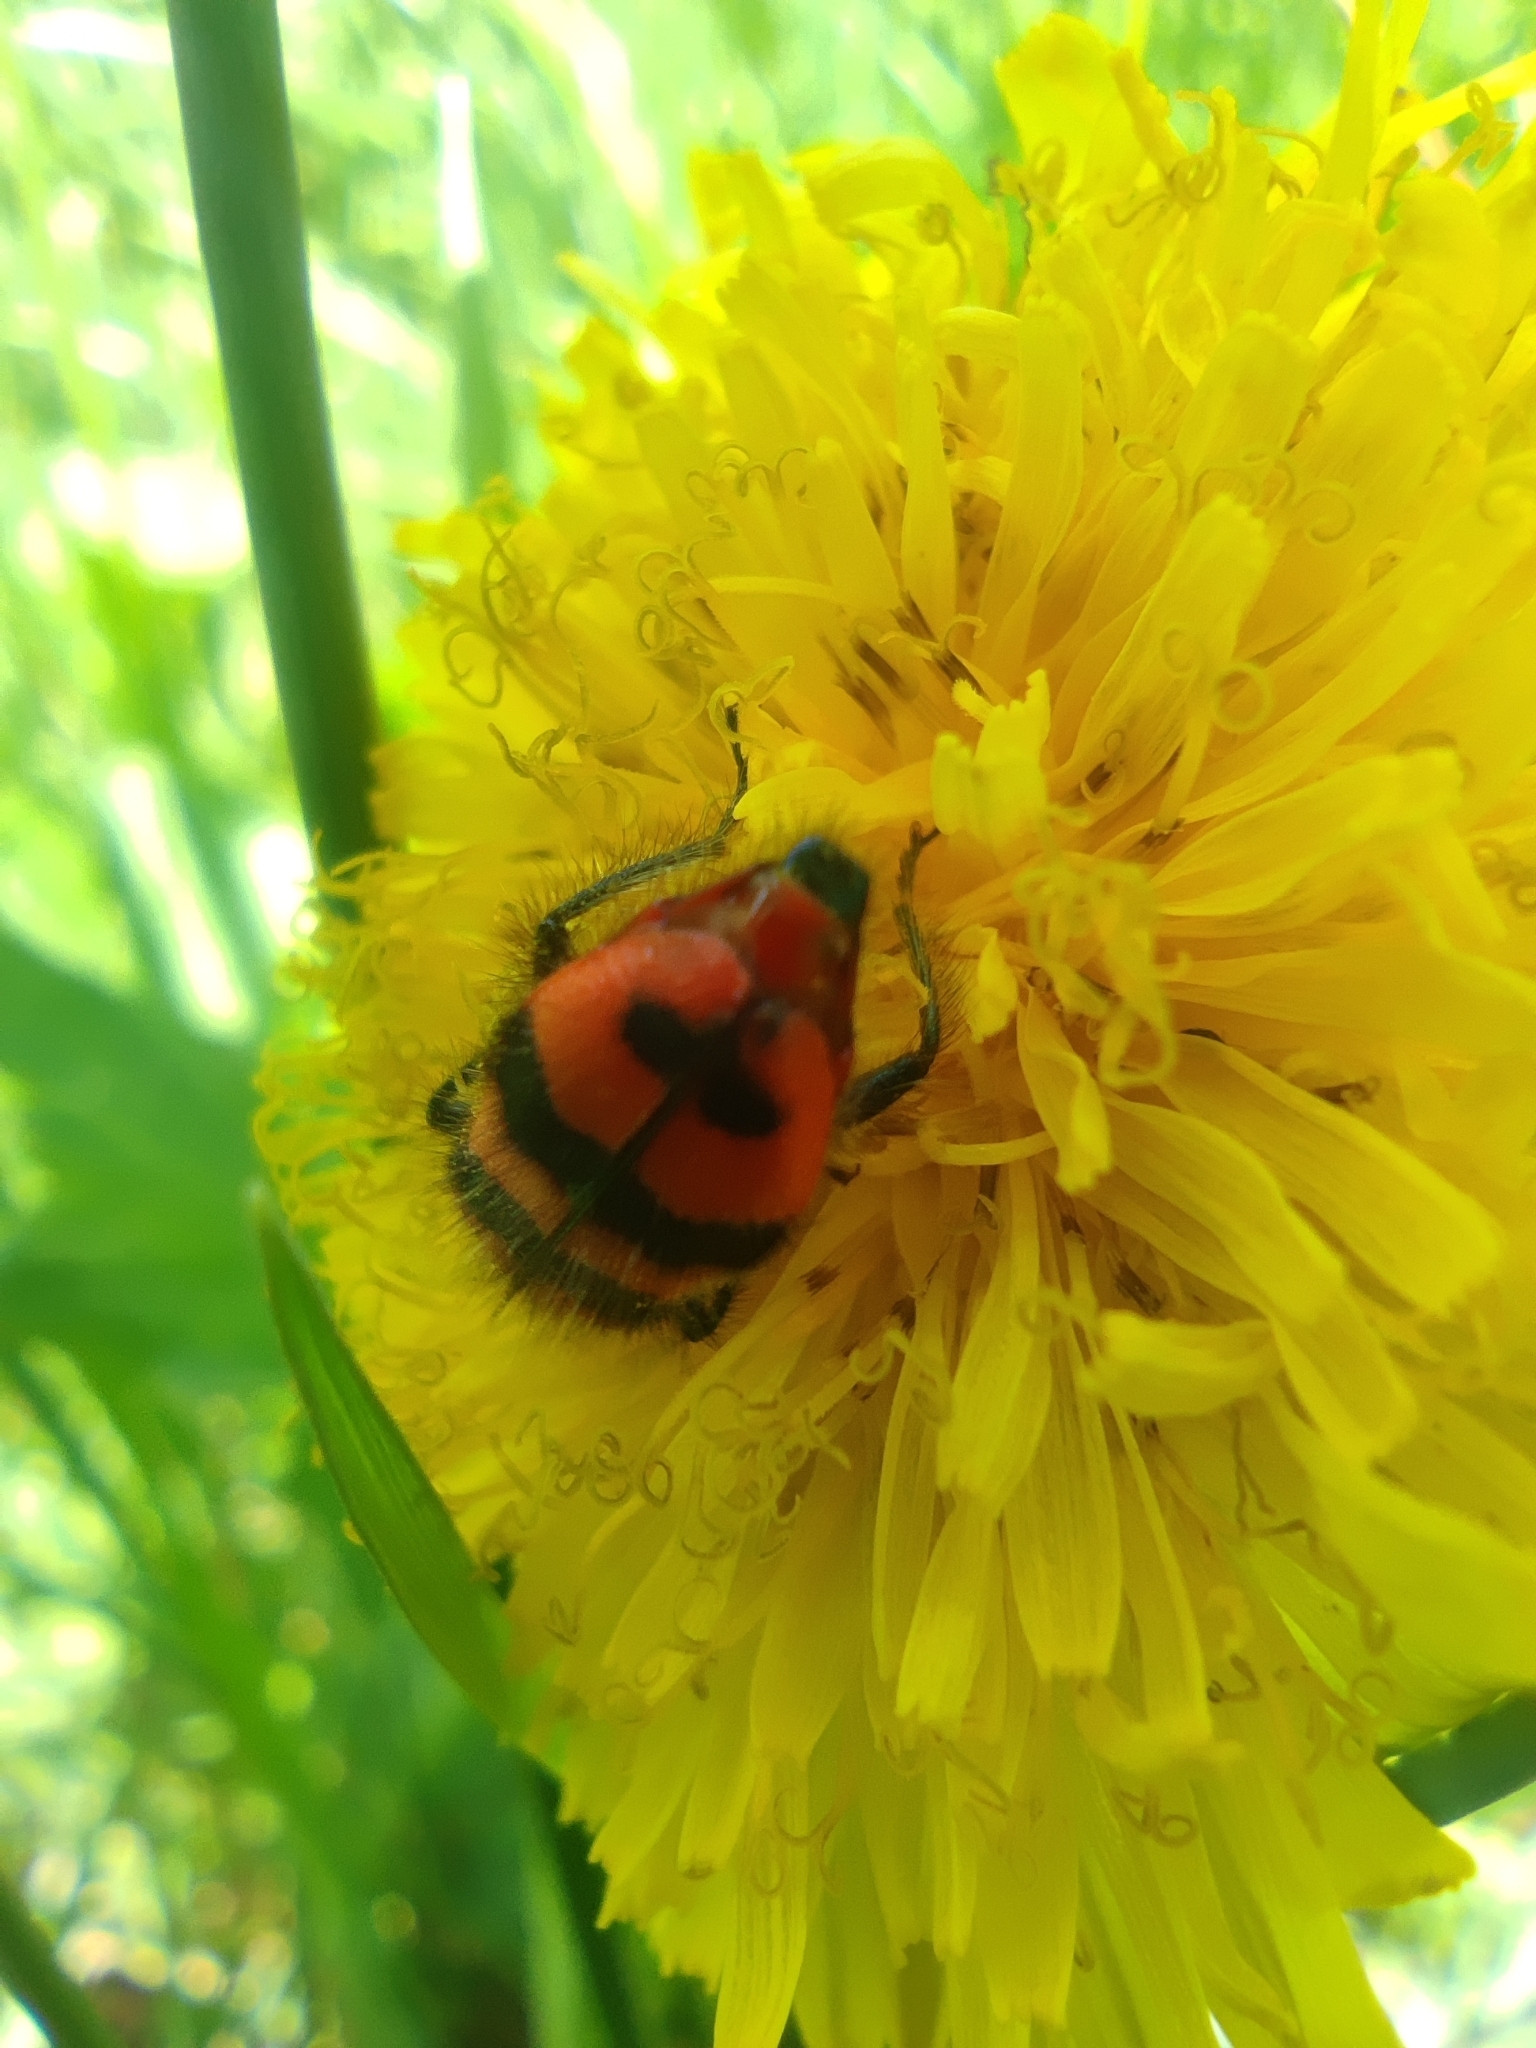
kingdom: Animalia
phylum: Arthropoda
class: Insecta
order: Coleoptera
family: Cleridae
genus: Trichodes
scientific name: Trichodes alvearius
